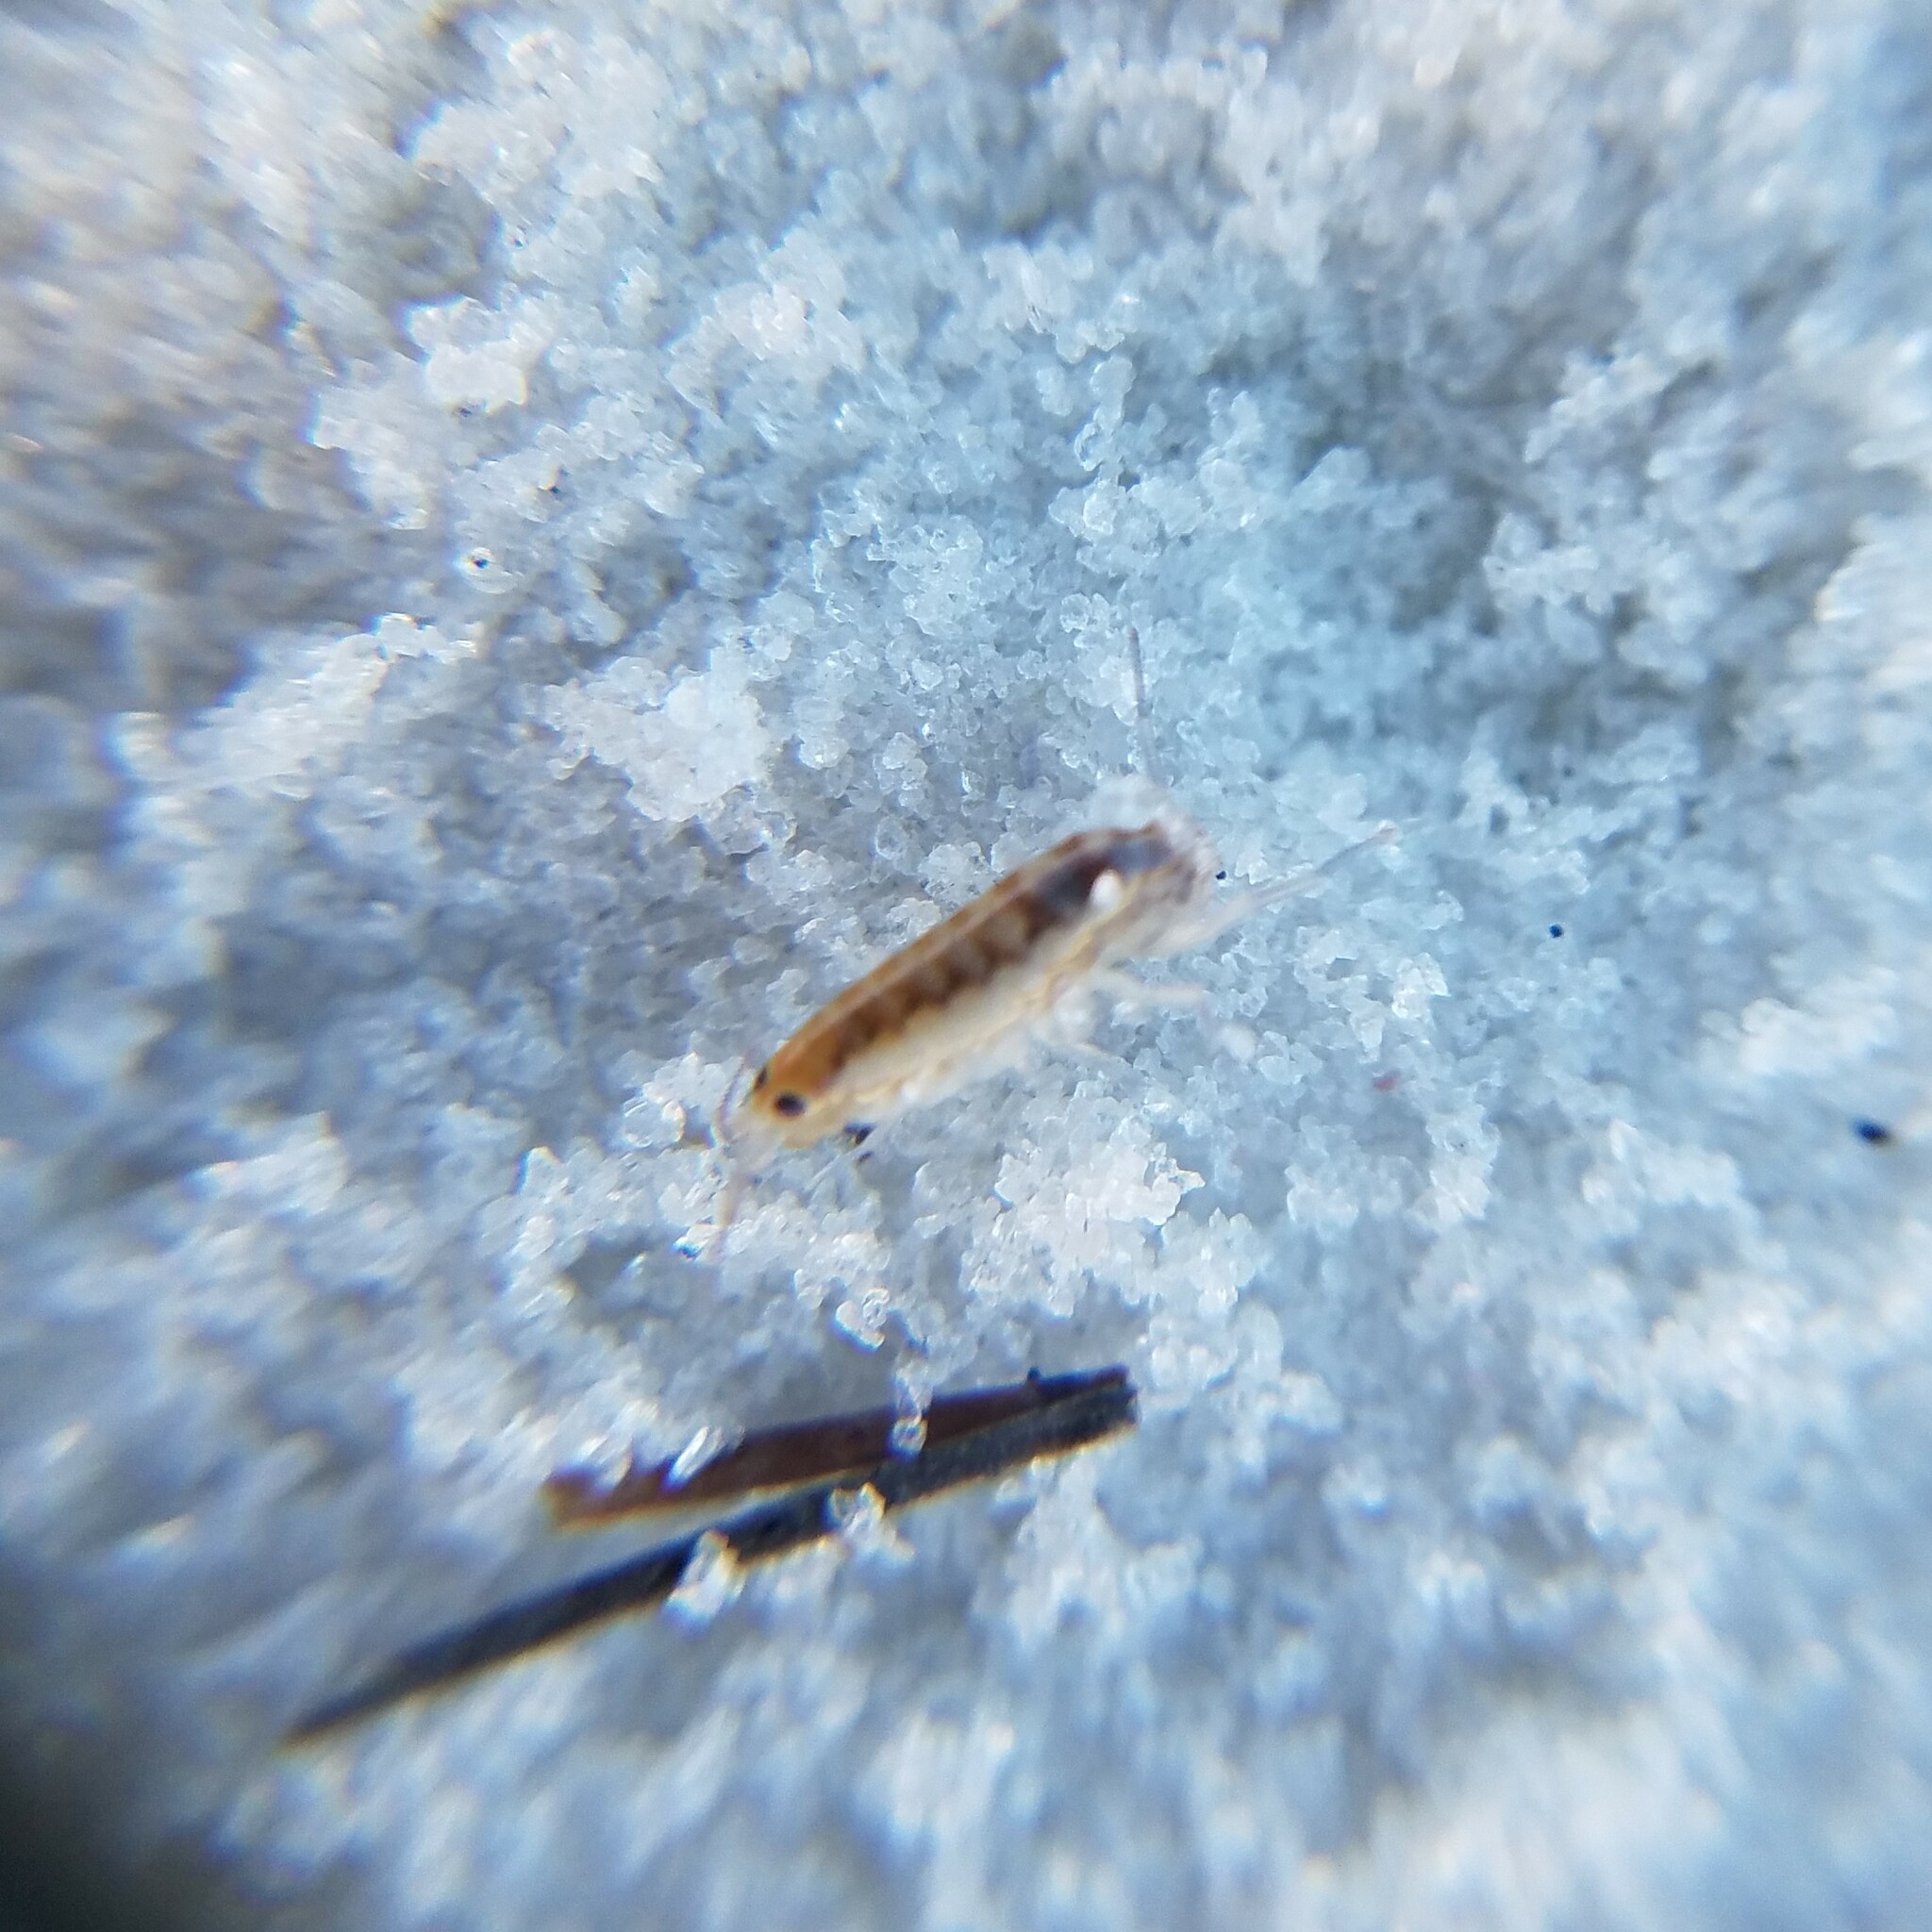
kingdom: Animalia
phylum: Arthropoda
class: Malacostraca
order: Amphipoda
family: Talitridae
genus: Mexorchestia
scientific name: Mexorchestia carpenteri
